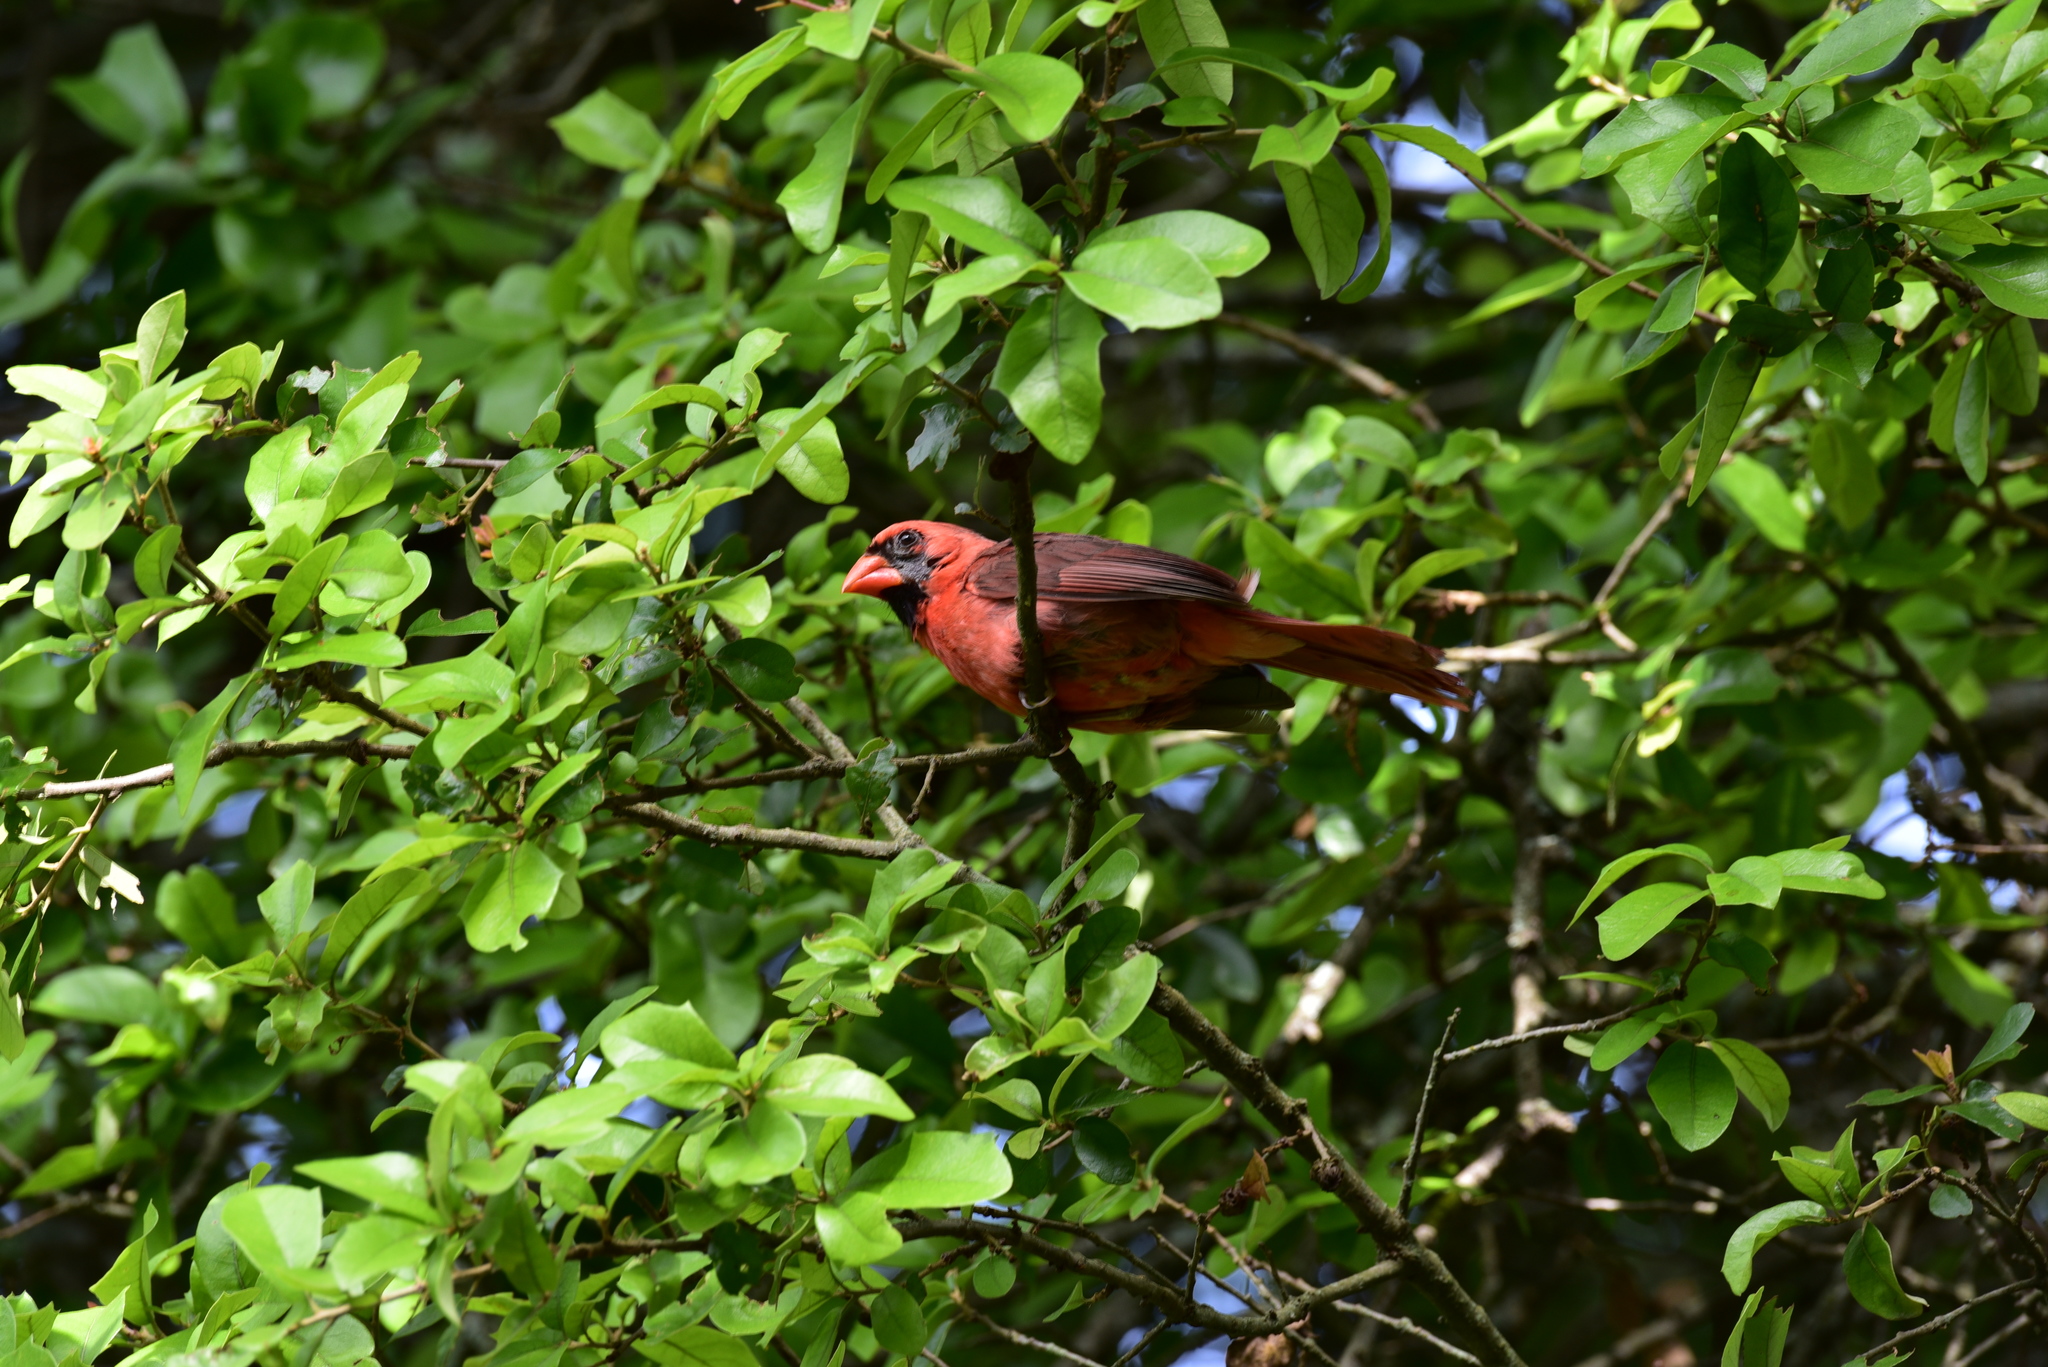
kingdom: Animalia
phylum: Chordata
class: Aves
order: Passeriformes
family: Cardinalidae
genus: Cardinalis
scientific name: Cardinalis cardinalis
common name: Northern cardinal
